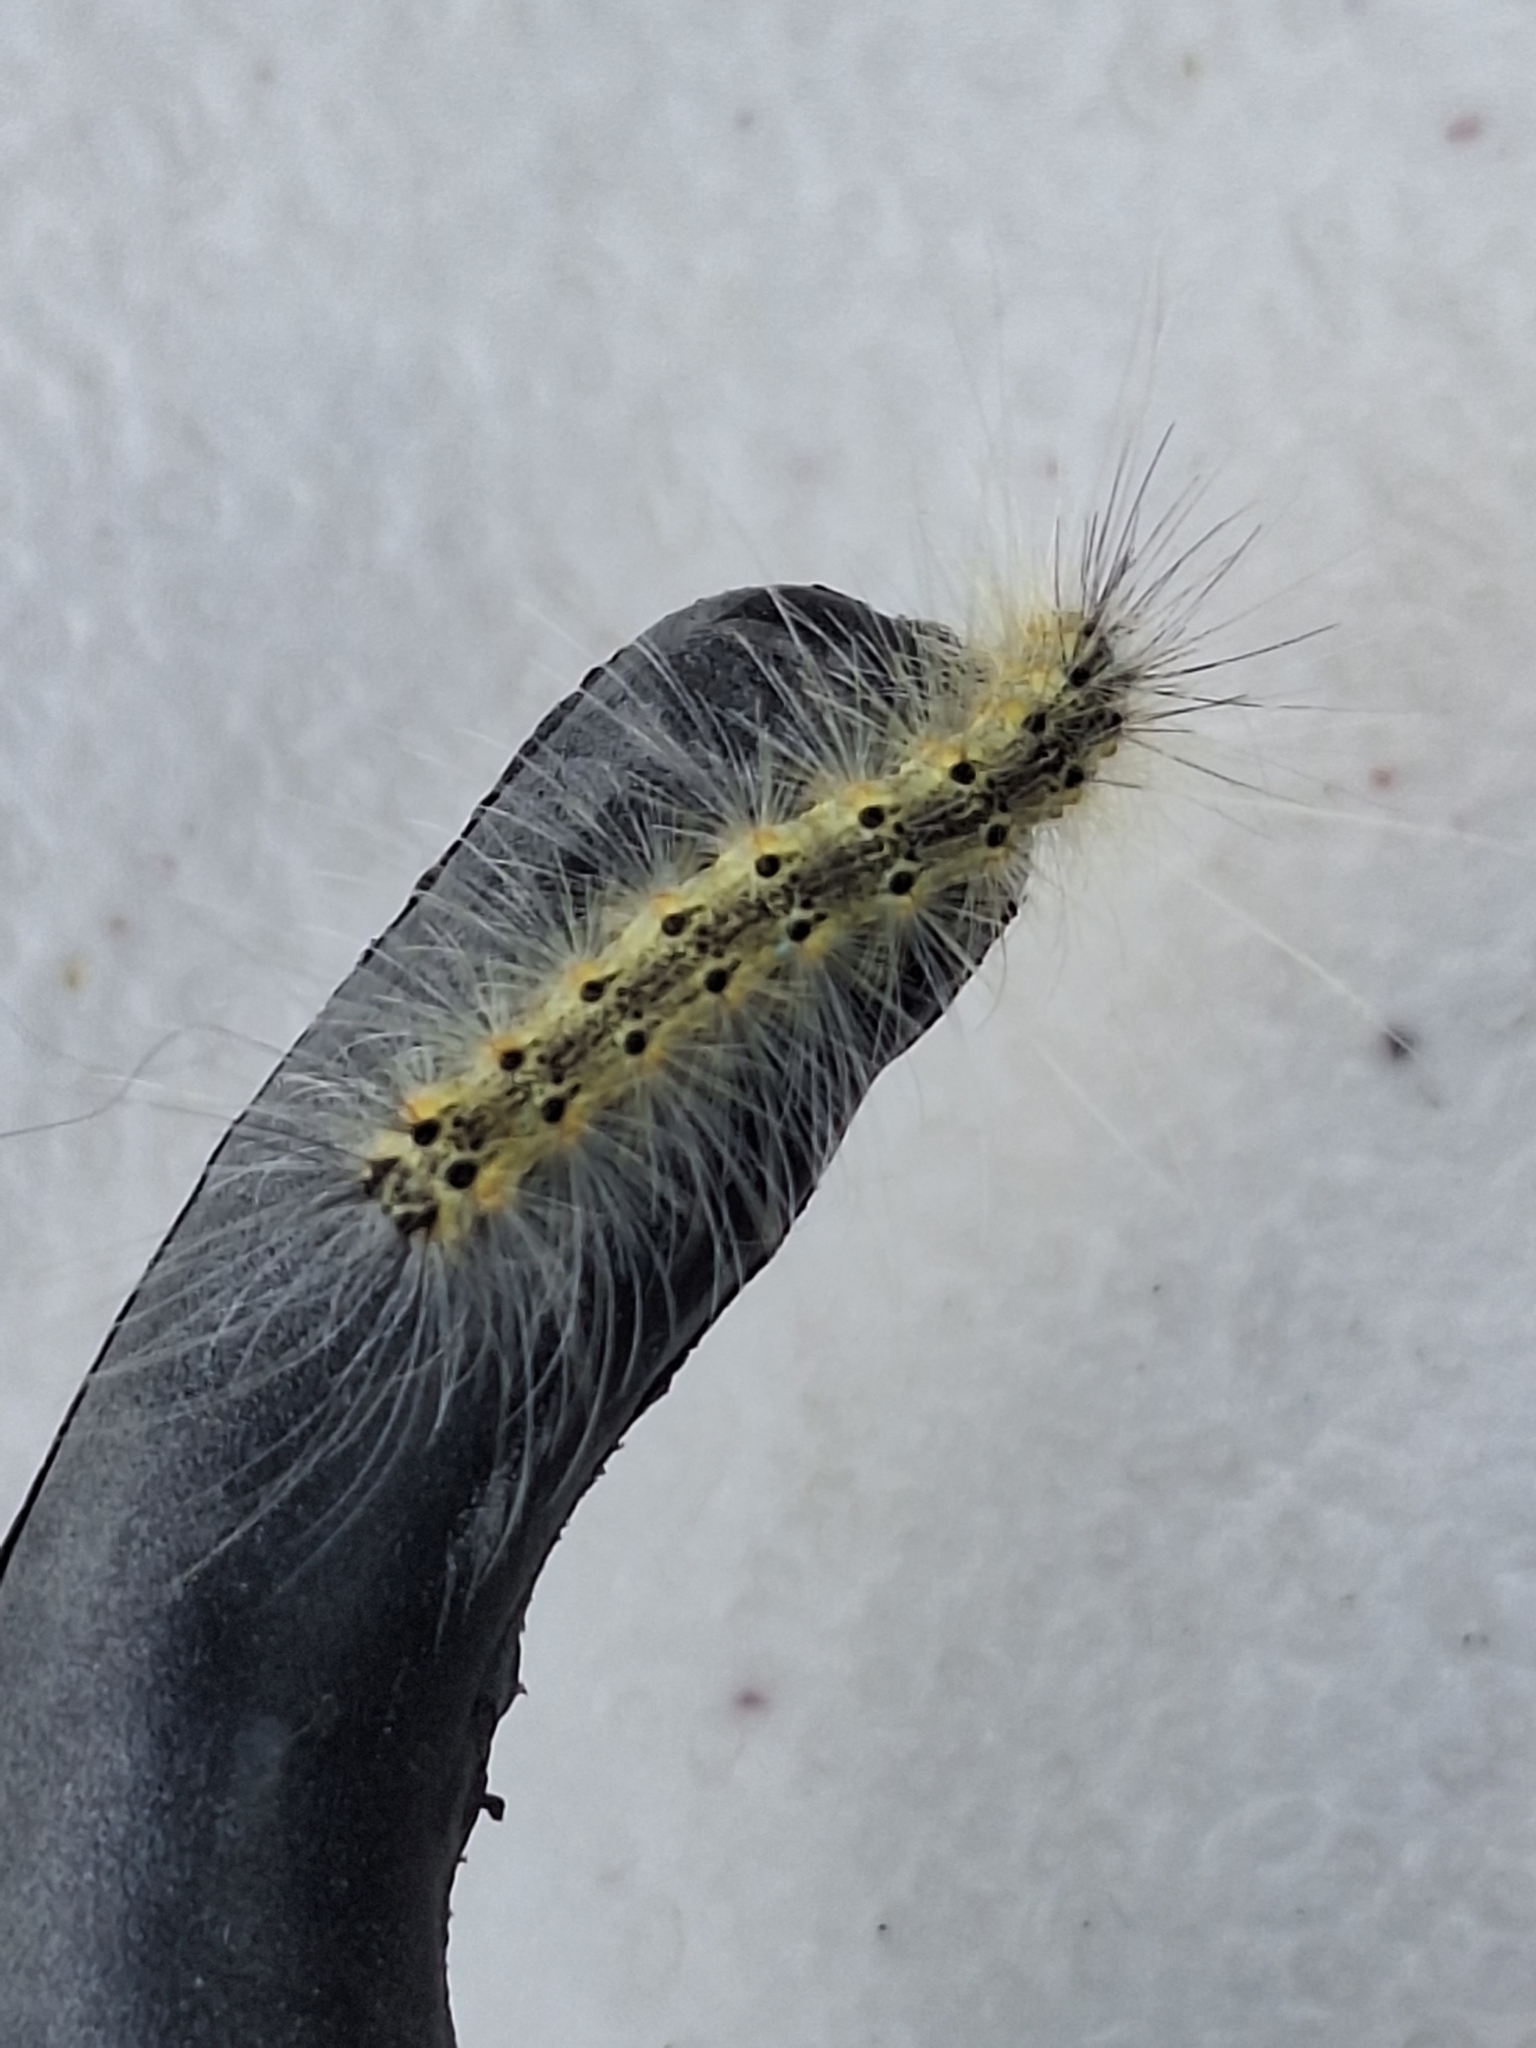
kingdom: Animalia
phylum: Arthropoda
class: Insecta
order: Lepidoptera
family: Erebidae
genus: Hyphantria
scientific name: Hyphantria cunea
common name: American white moth
